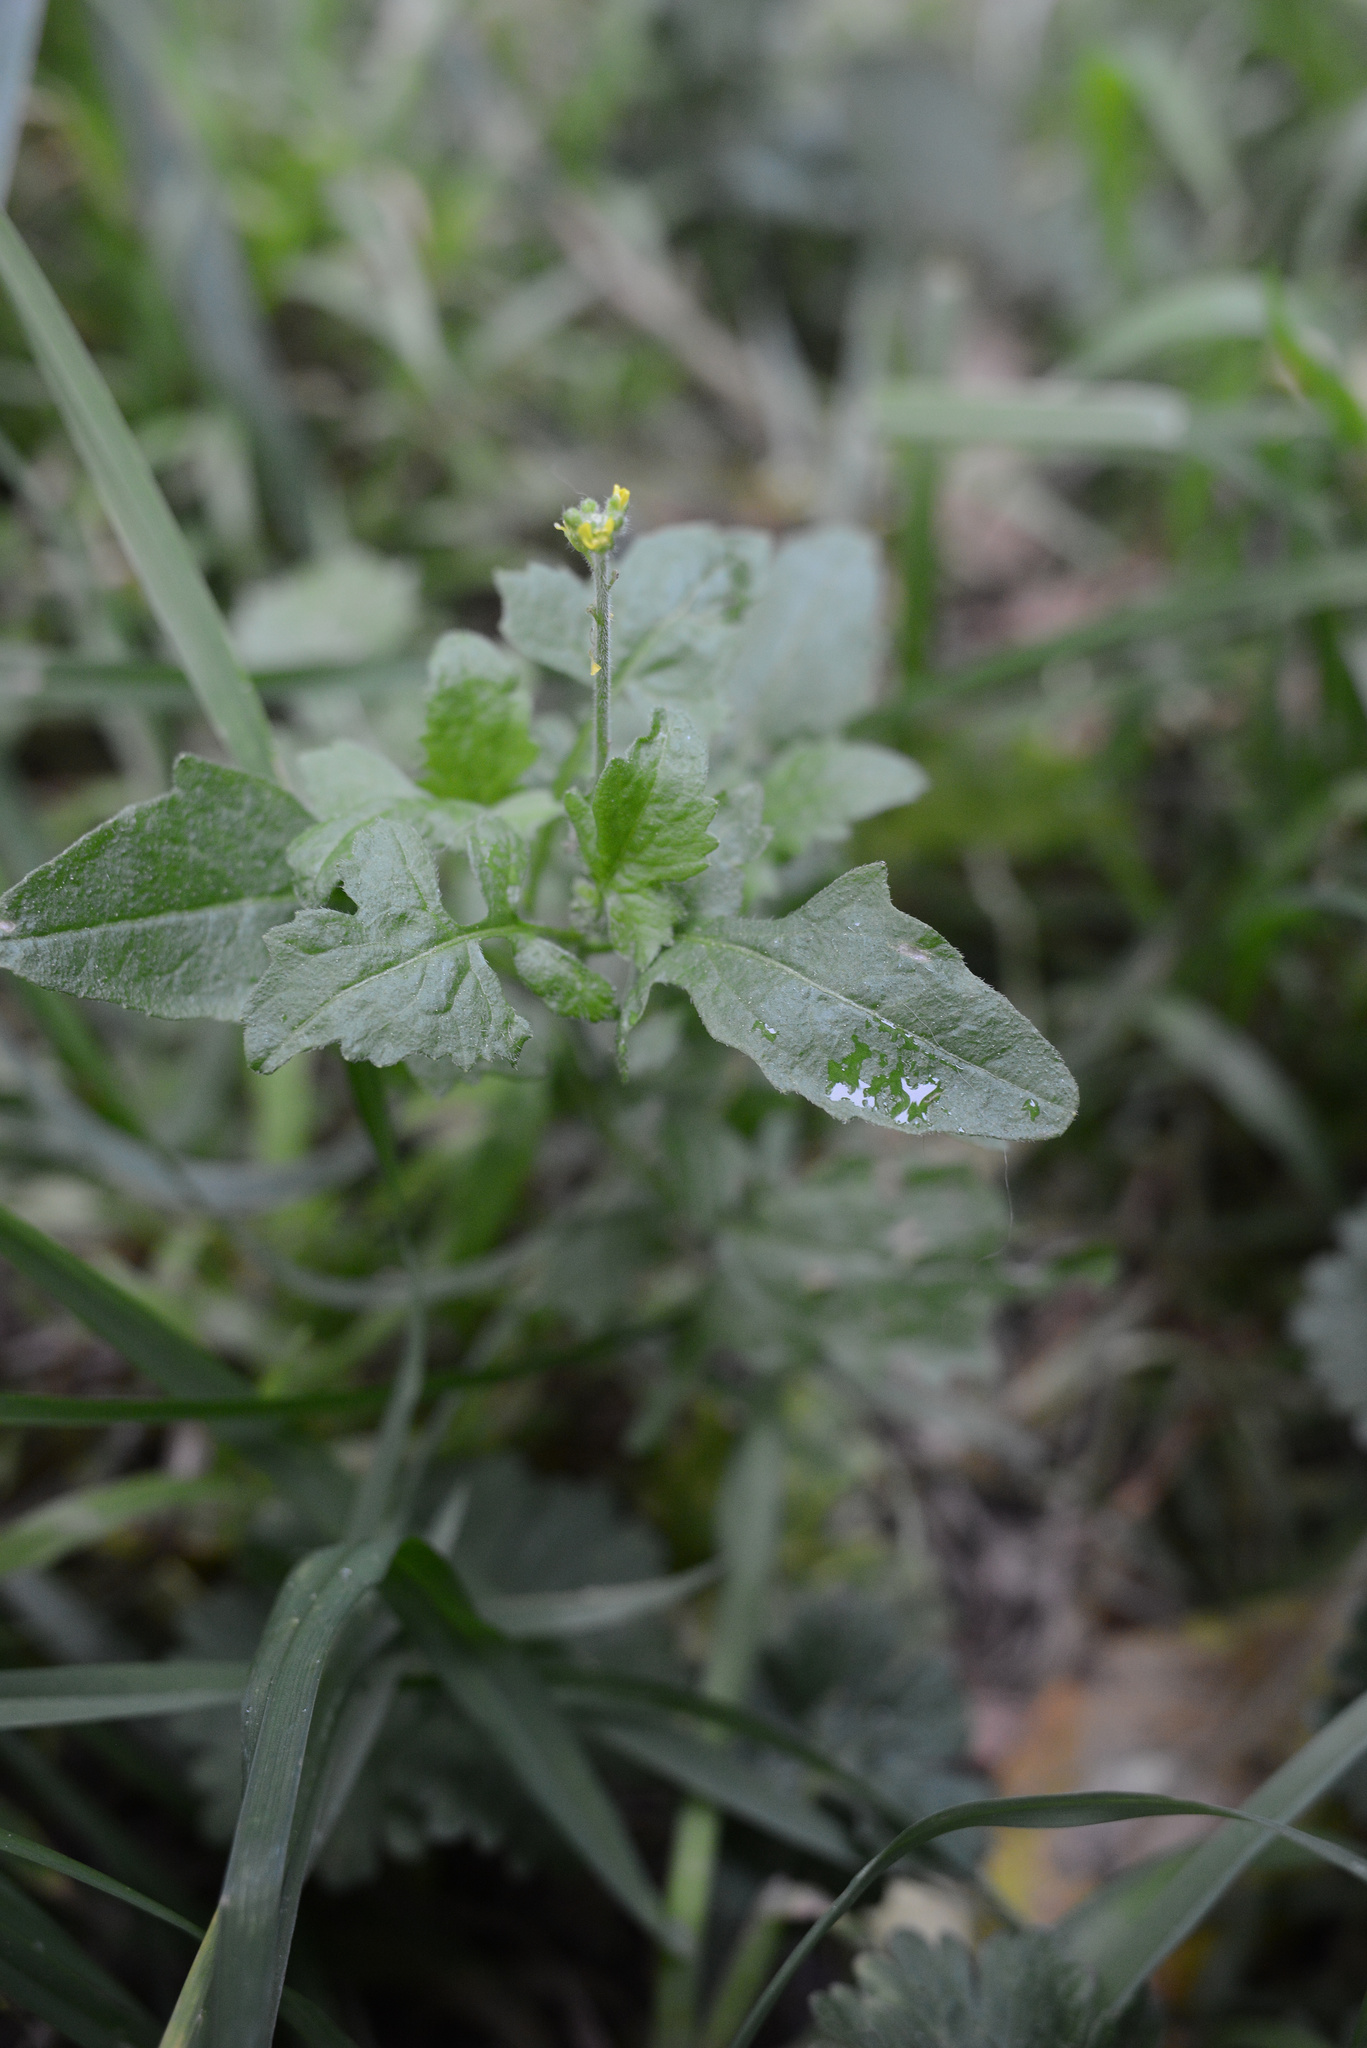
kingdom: Plantae
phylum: Tracheophyta
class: Magnoliopsida
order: Brassicales
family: Brassicaceae
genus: Sisymbrium
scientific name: Sisymbrium officinale
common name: Hedge mustard
